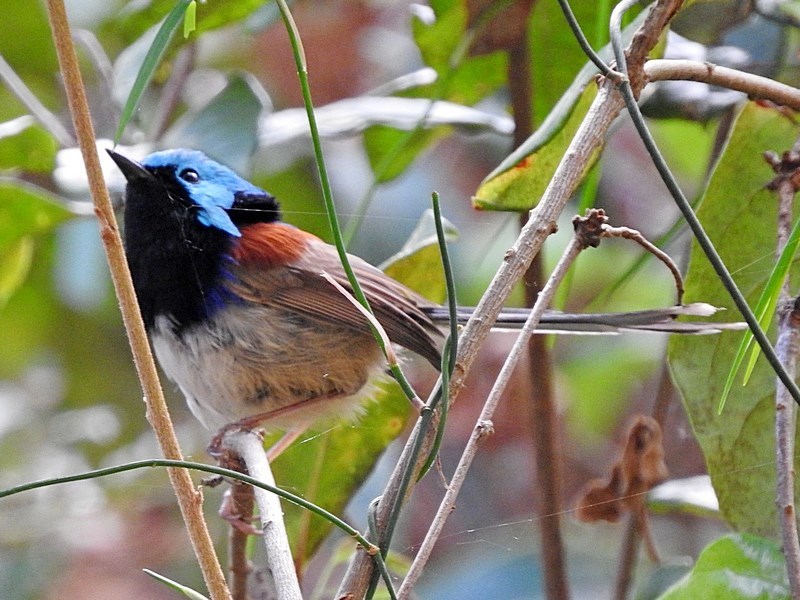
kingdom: Animalia
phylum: Chordata
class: Aves
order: Passeriformes
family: Maluridae
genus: Malurus
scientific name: Malurus lamberti
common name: Variegated fairywren
